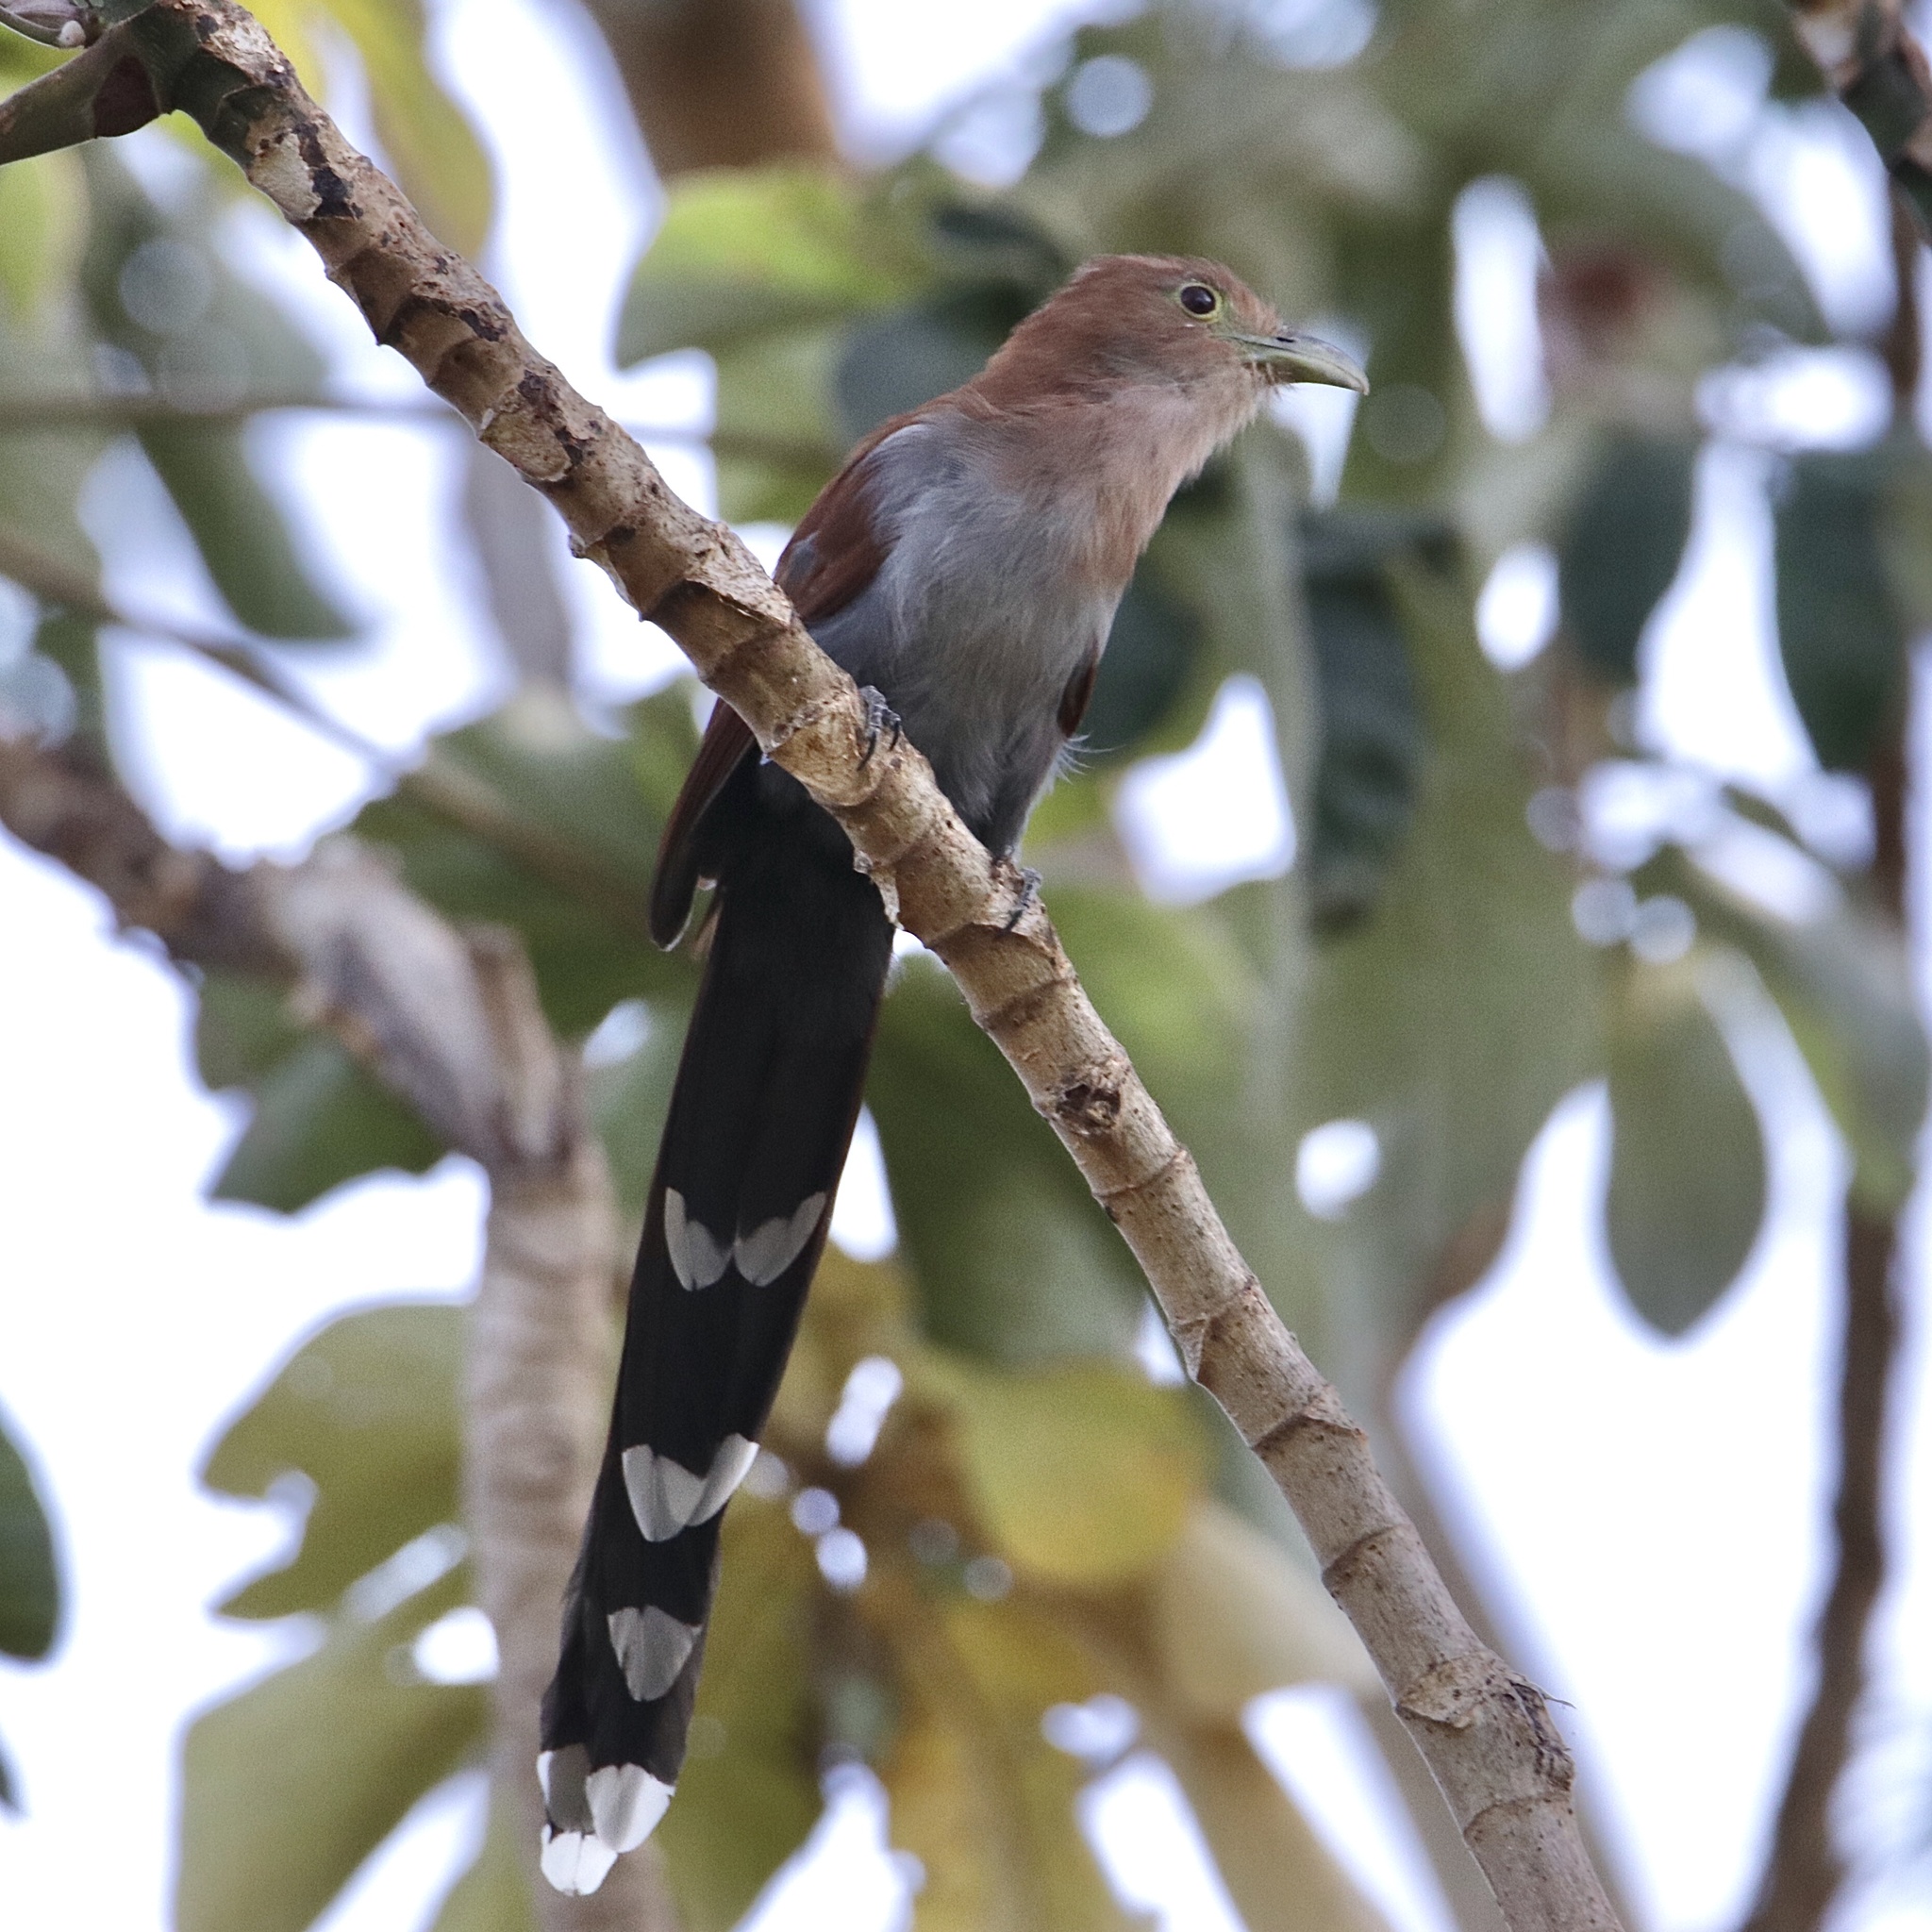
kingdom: Animalia
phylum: Chordata
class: Aves
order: Cuculiformes
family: Cuculidae
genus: Piaya
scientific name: Piaya cayana
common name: Squirrel cuckoo
